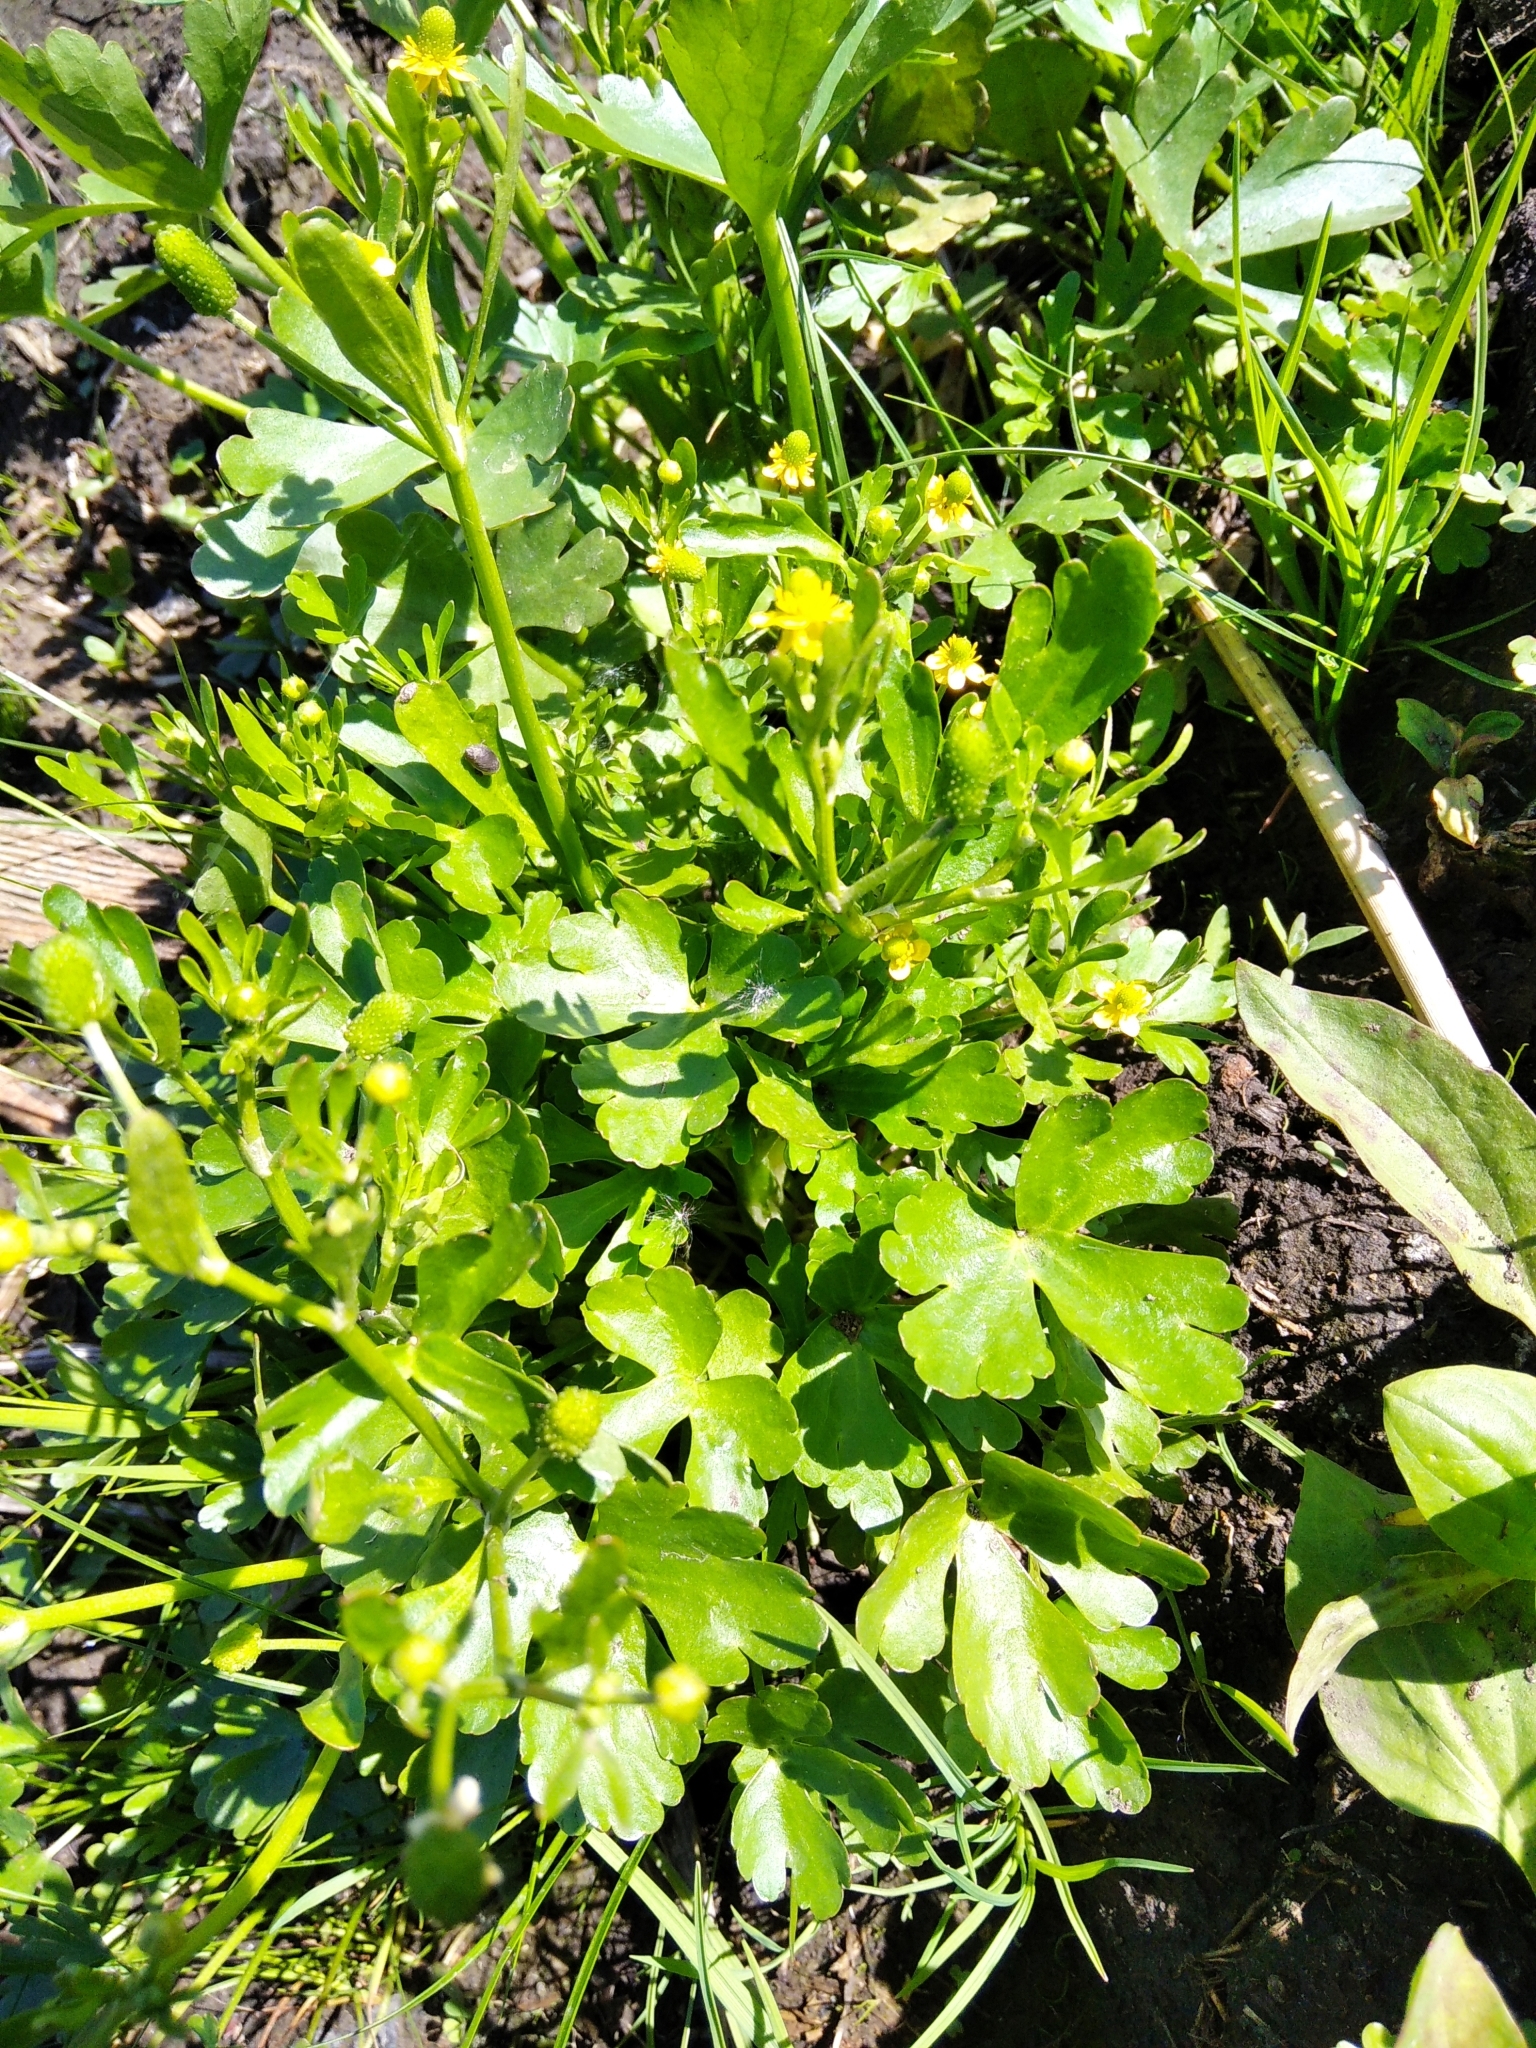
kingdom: Plantae
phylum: Tracheophyta
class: Magnoliopsida
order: Ranunculales
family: Ranunculaceae
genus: Ranunculus
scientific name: Ranunculus sceleratus
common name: Celery-leaved buttercup
